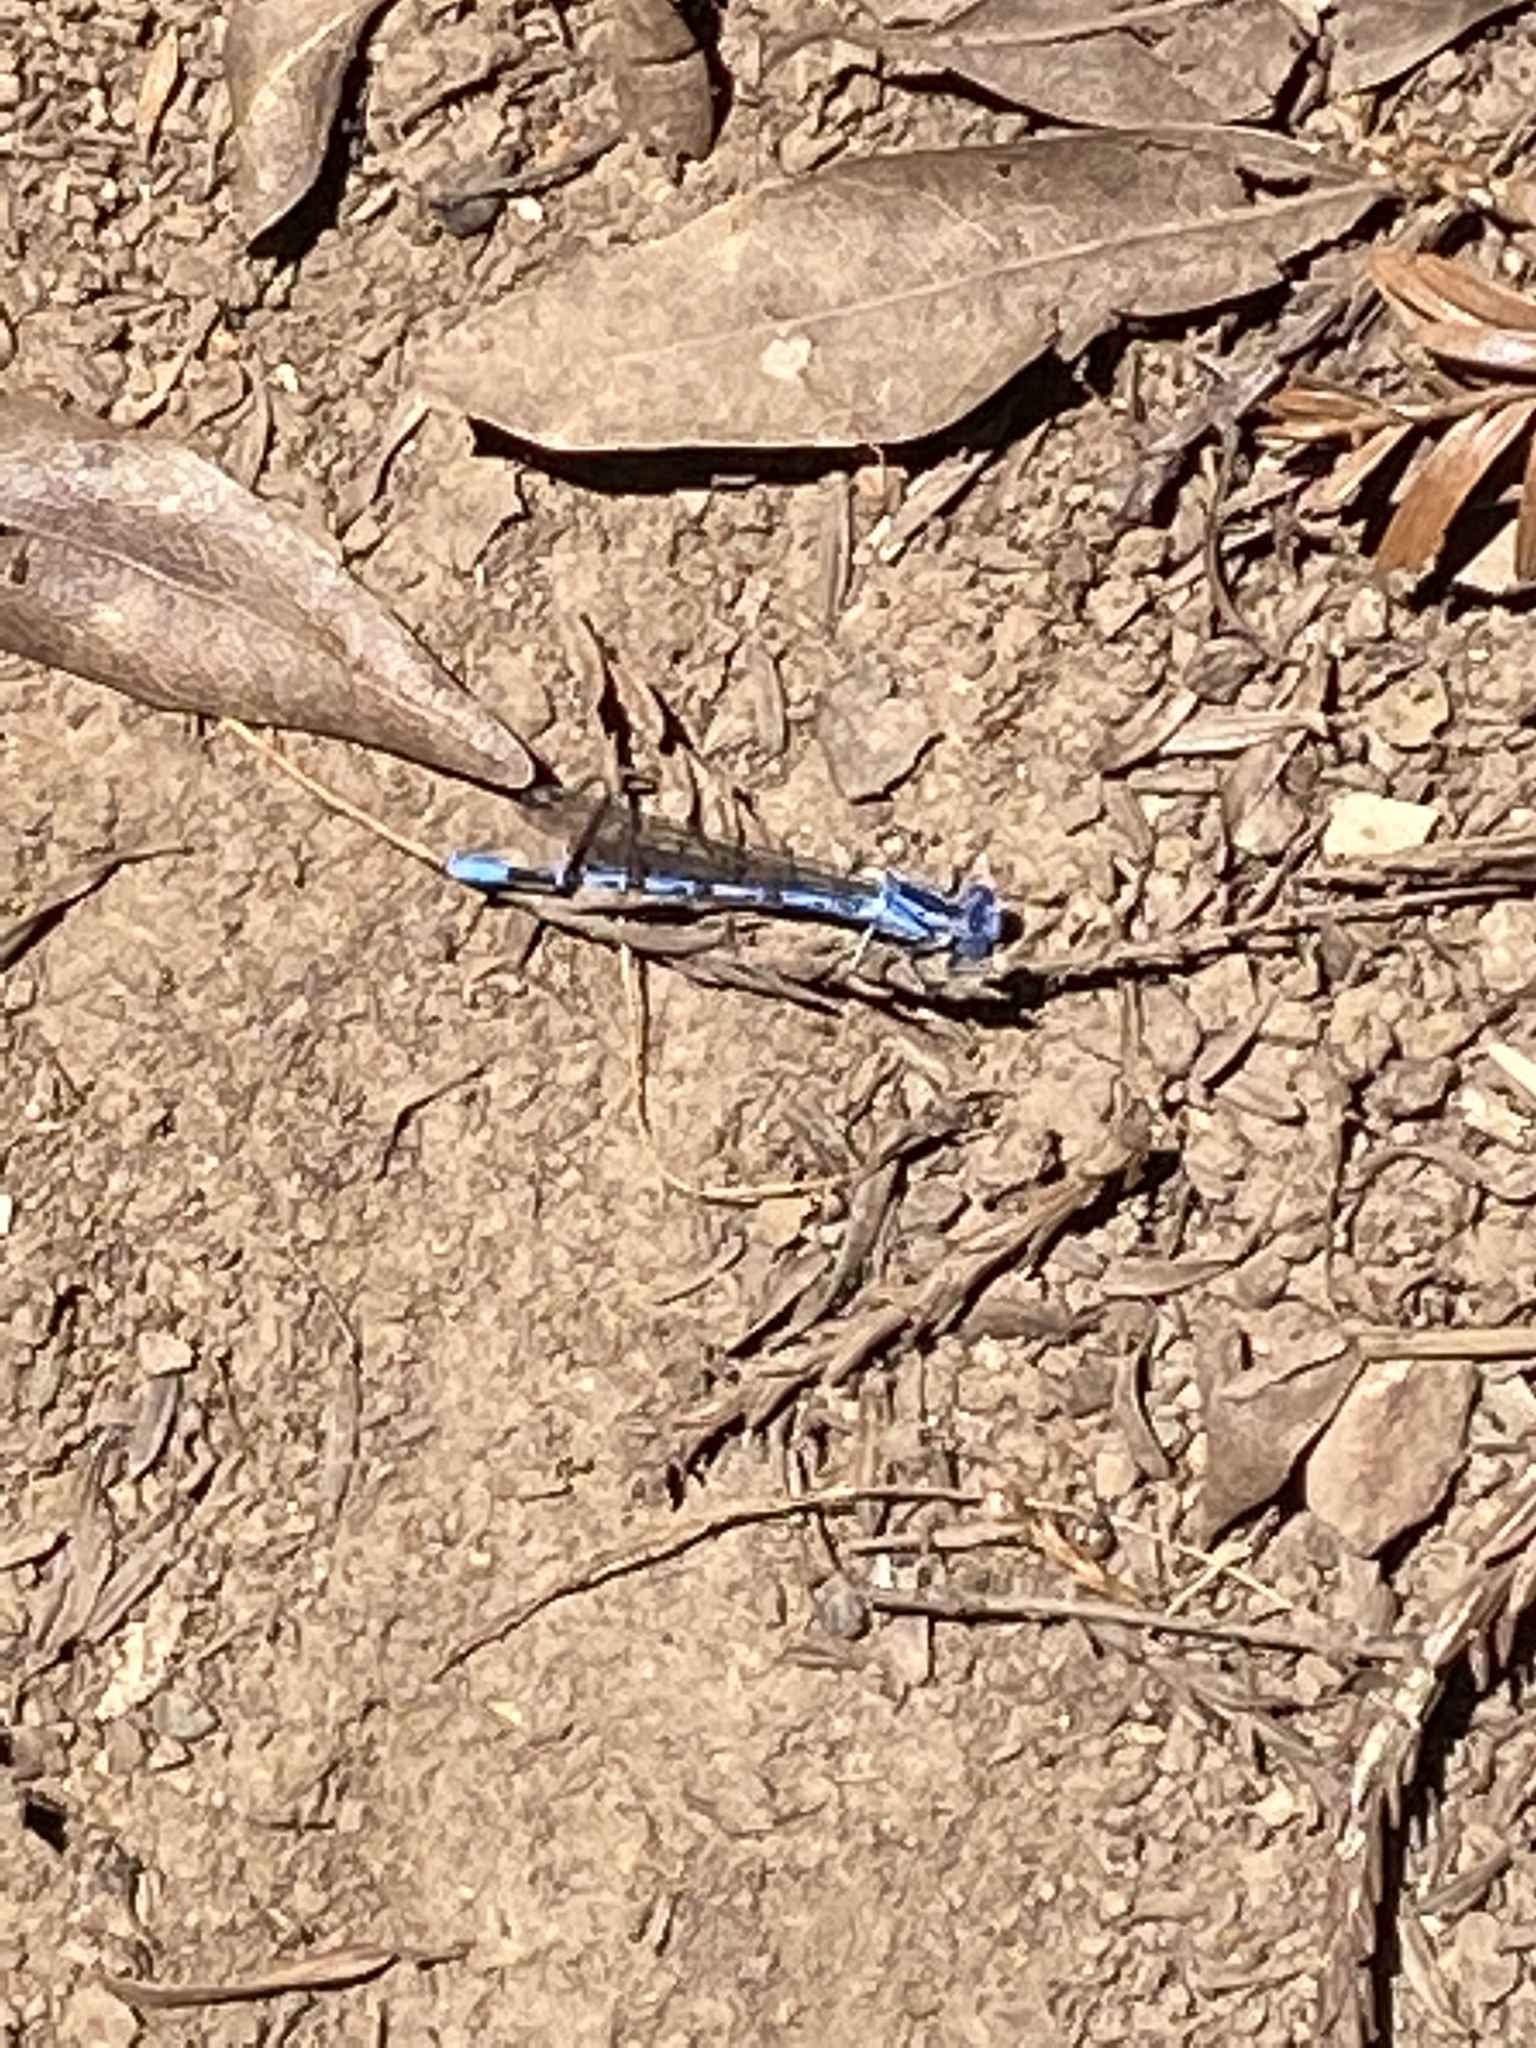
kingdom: Animalia
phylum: Arthropoda
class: Insecta
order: Odonata
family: Coenagrionidae
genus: Argia
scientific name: Argia vivida
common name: Vivid dancer
